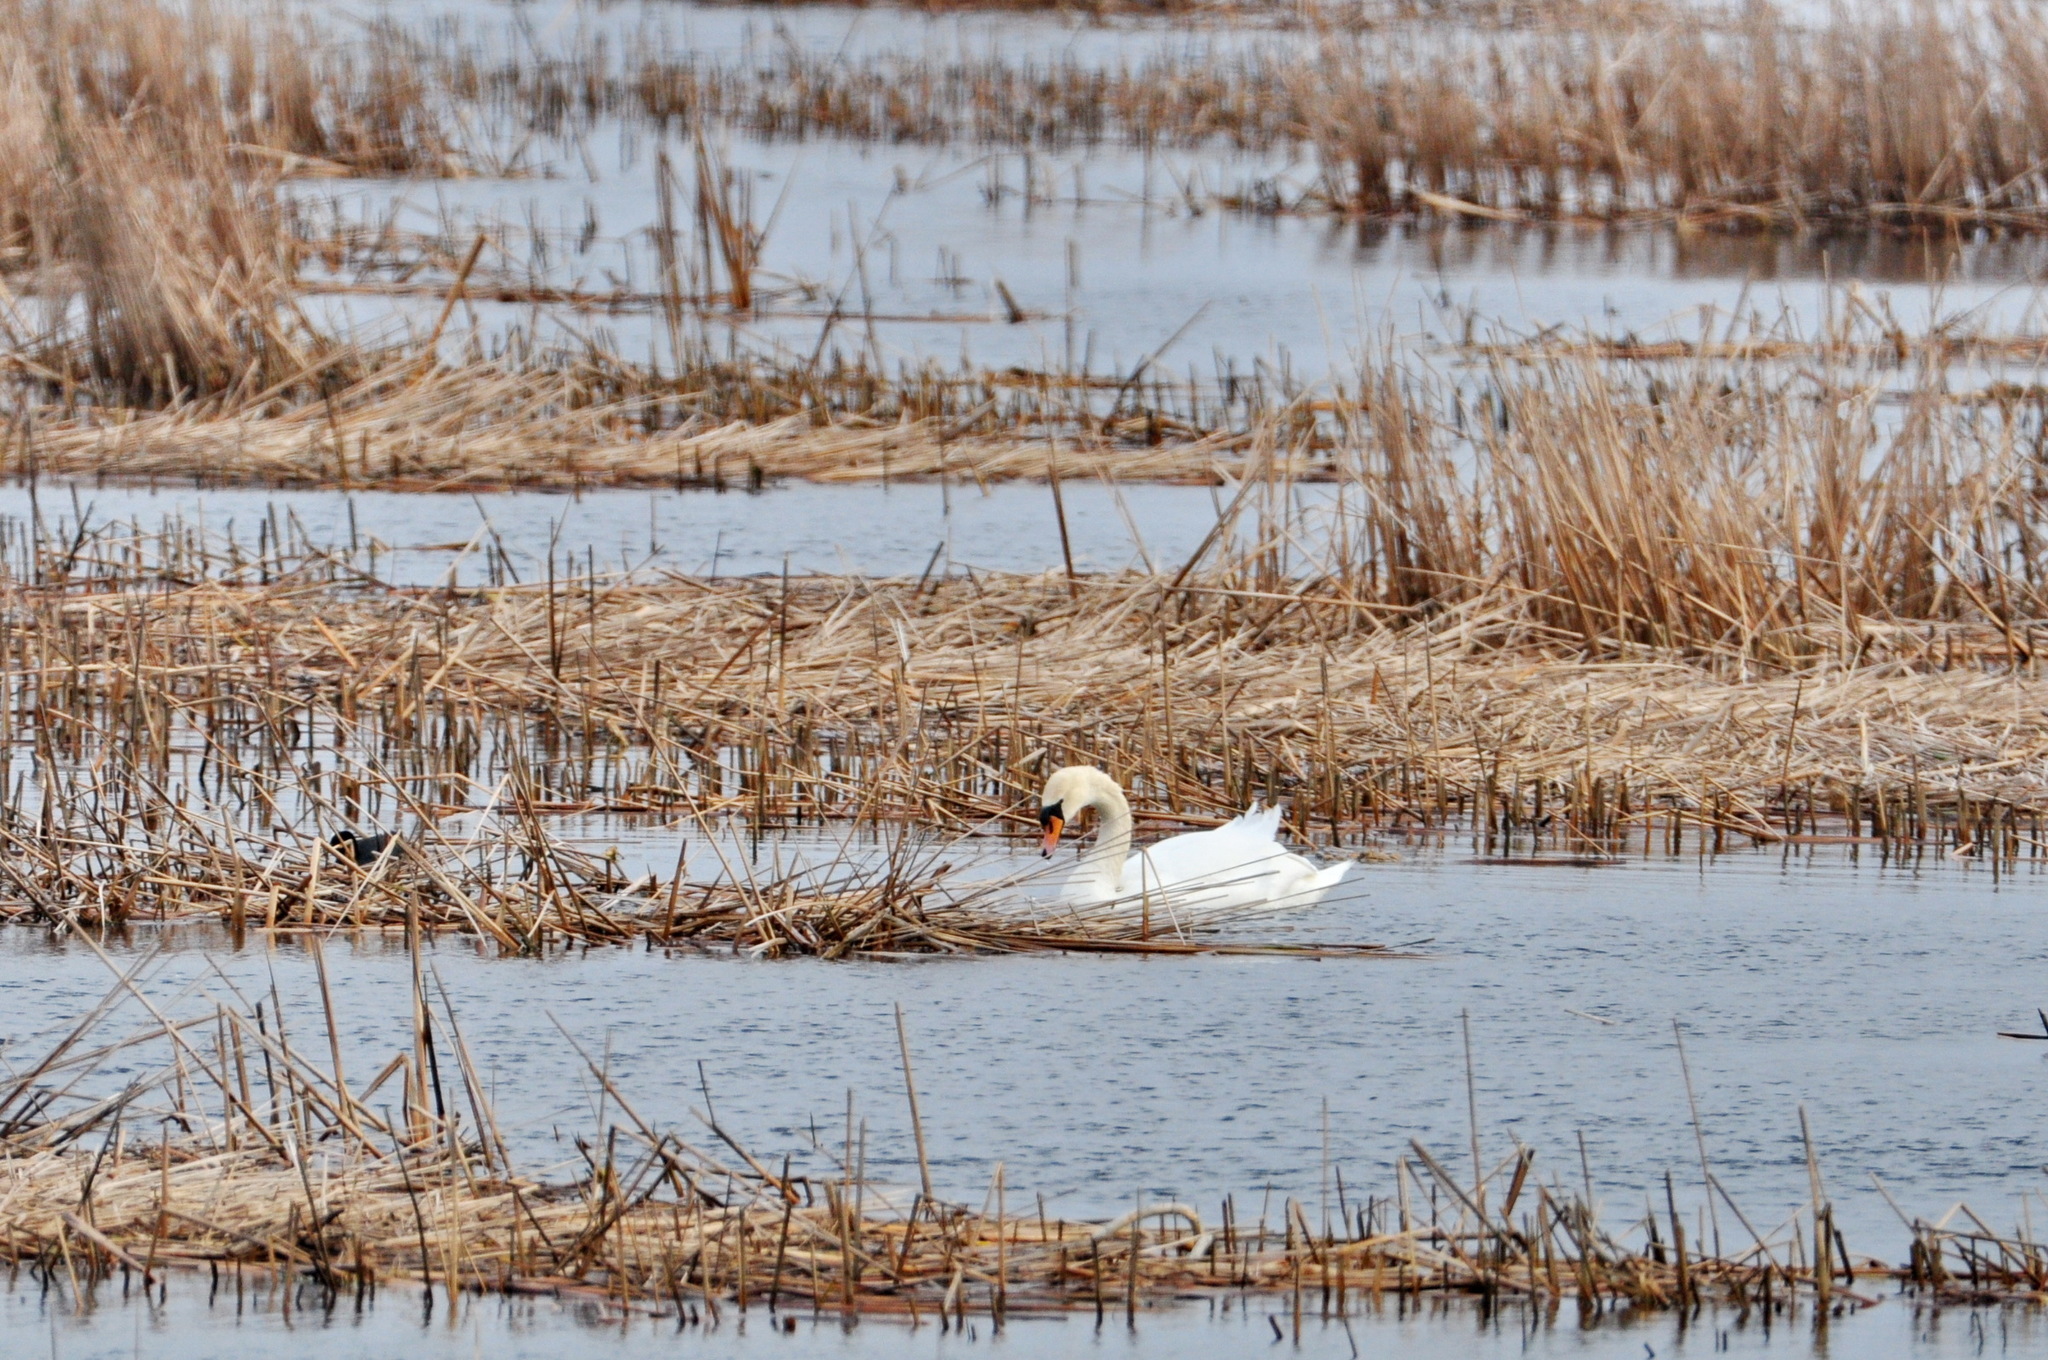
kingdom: Animalia
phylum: Chordata
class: Aves
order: Anseriformes
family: Anatidae
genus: Cygnus
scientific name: Cygnus olor
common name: Mute swan
